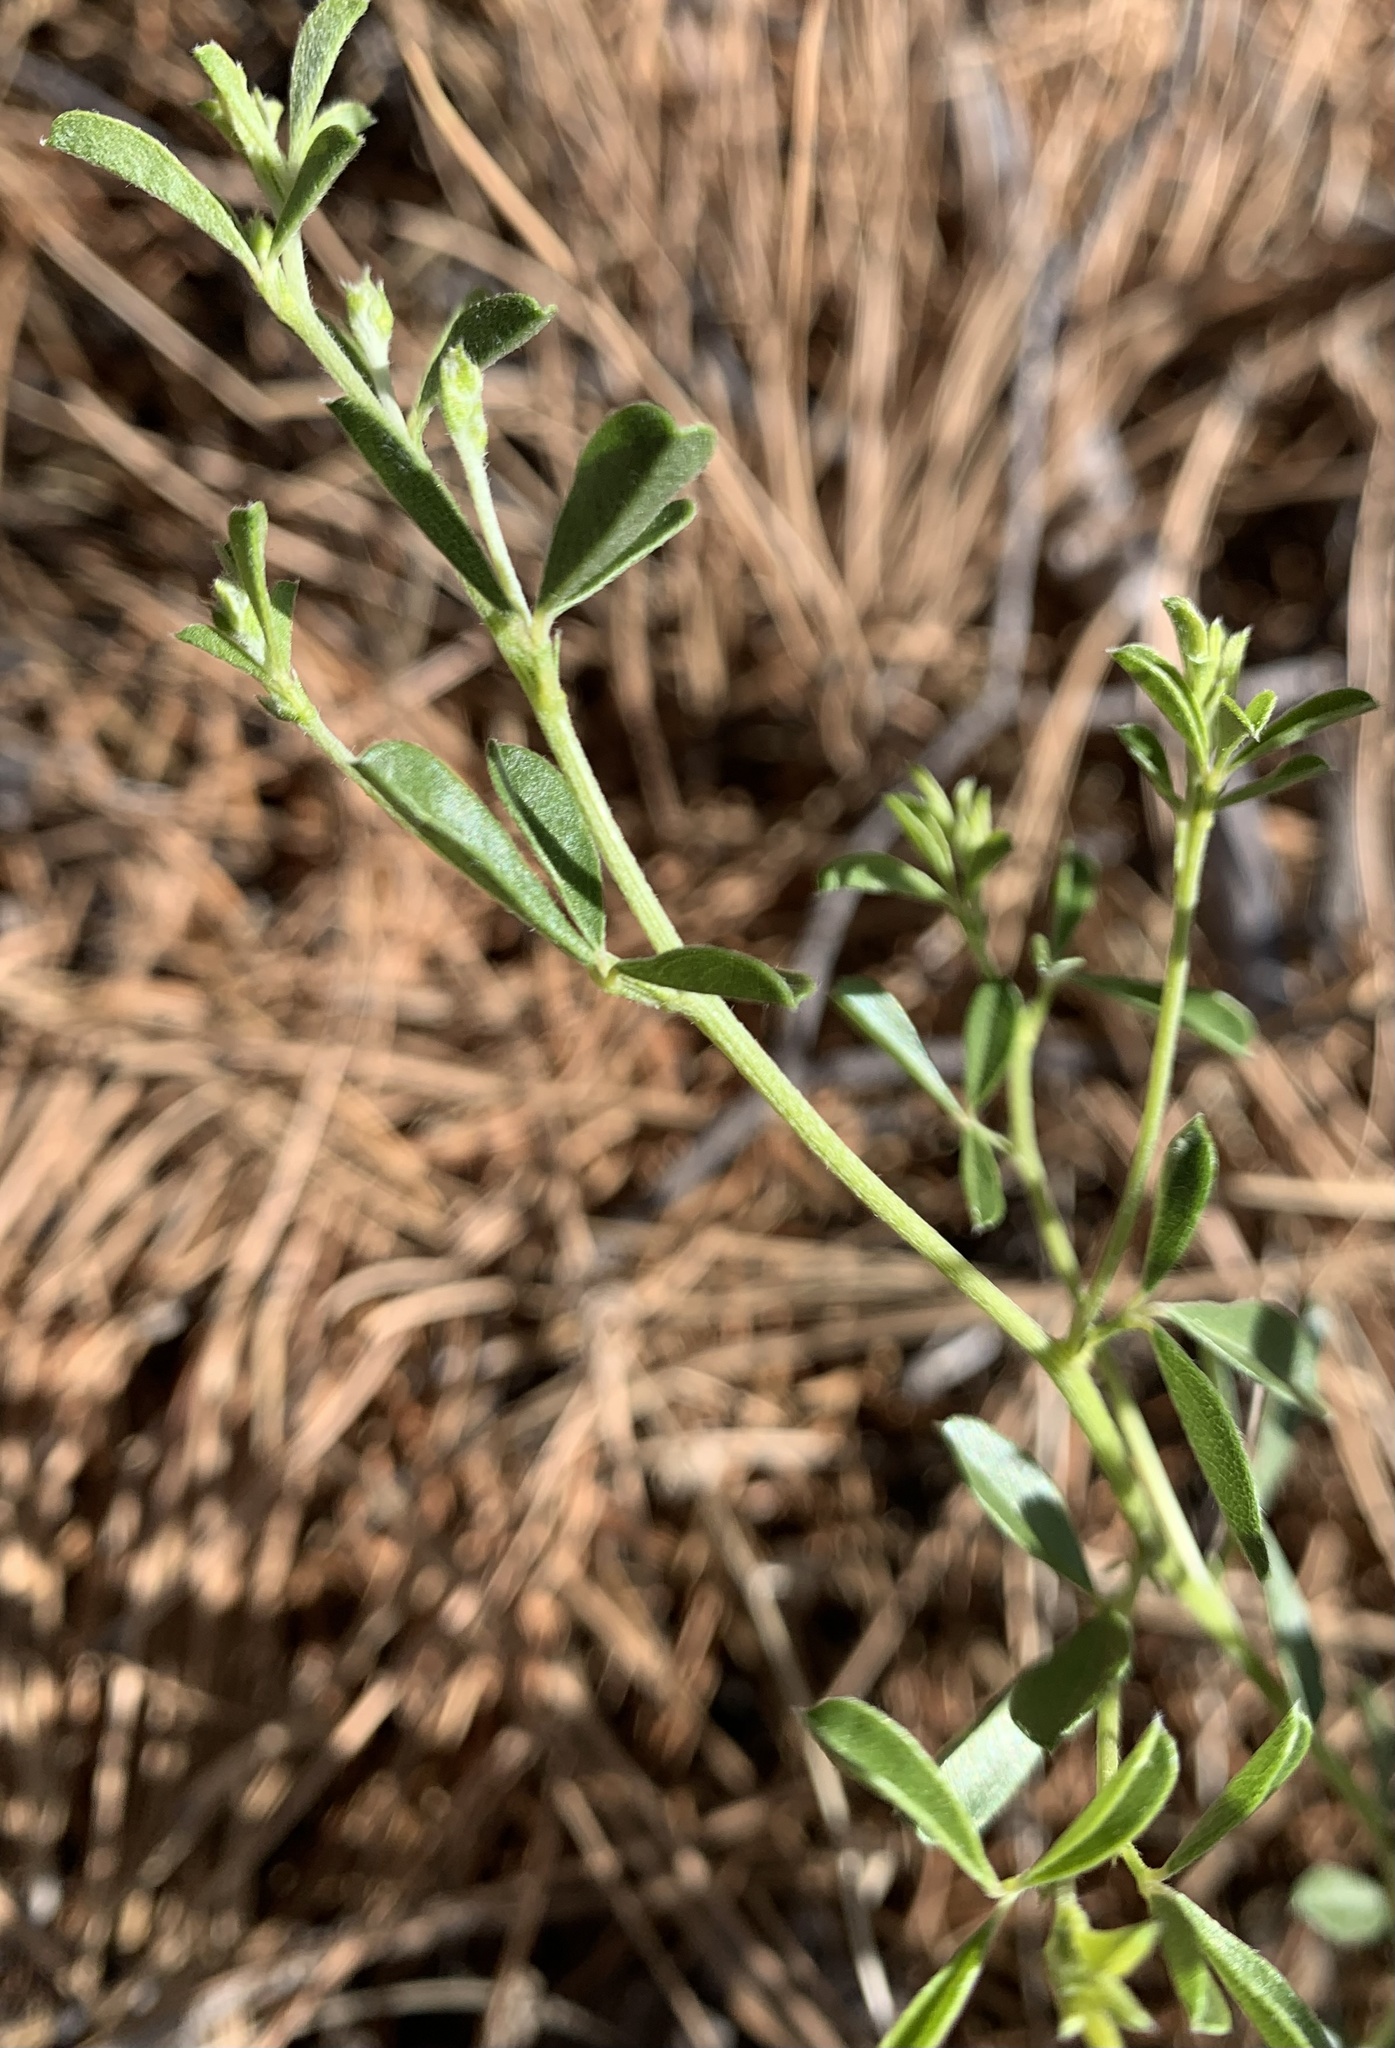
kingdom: Plantae
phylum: Tracheophyta
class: Magnoliopsida
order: Fabales
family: Fabaceae
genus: Pediomelum
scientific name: Pediomelum tenuiflorum
